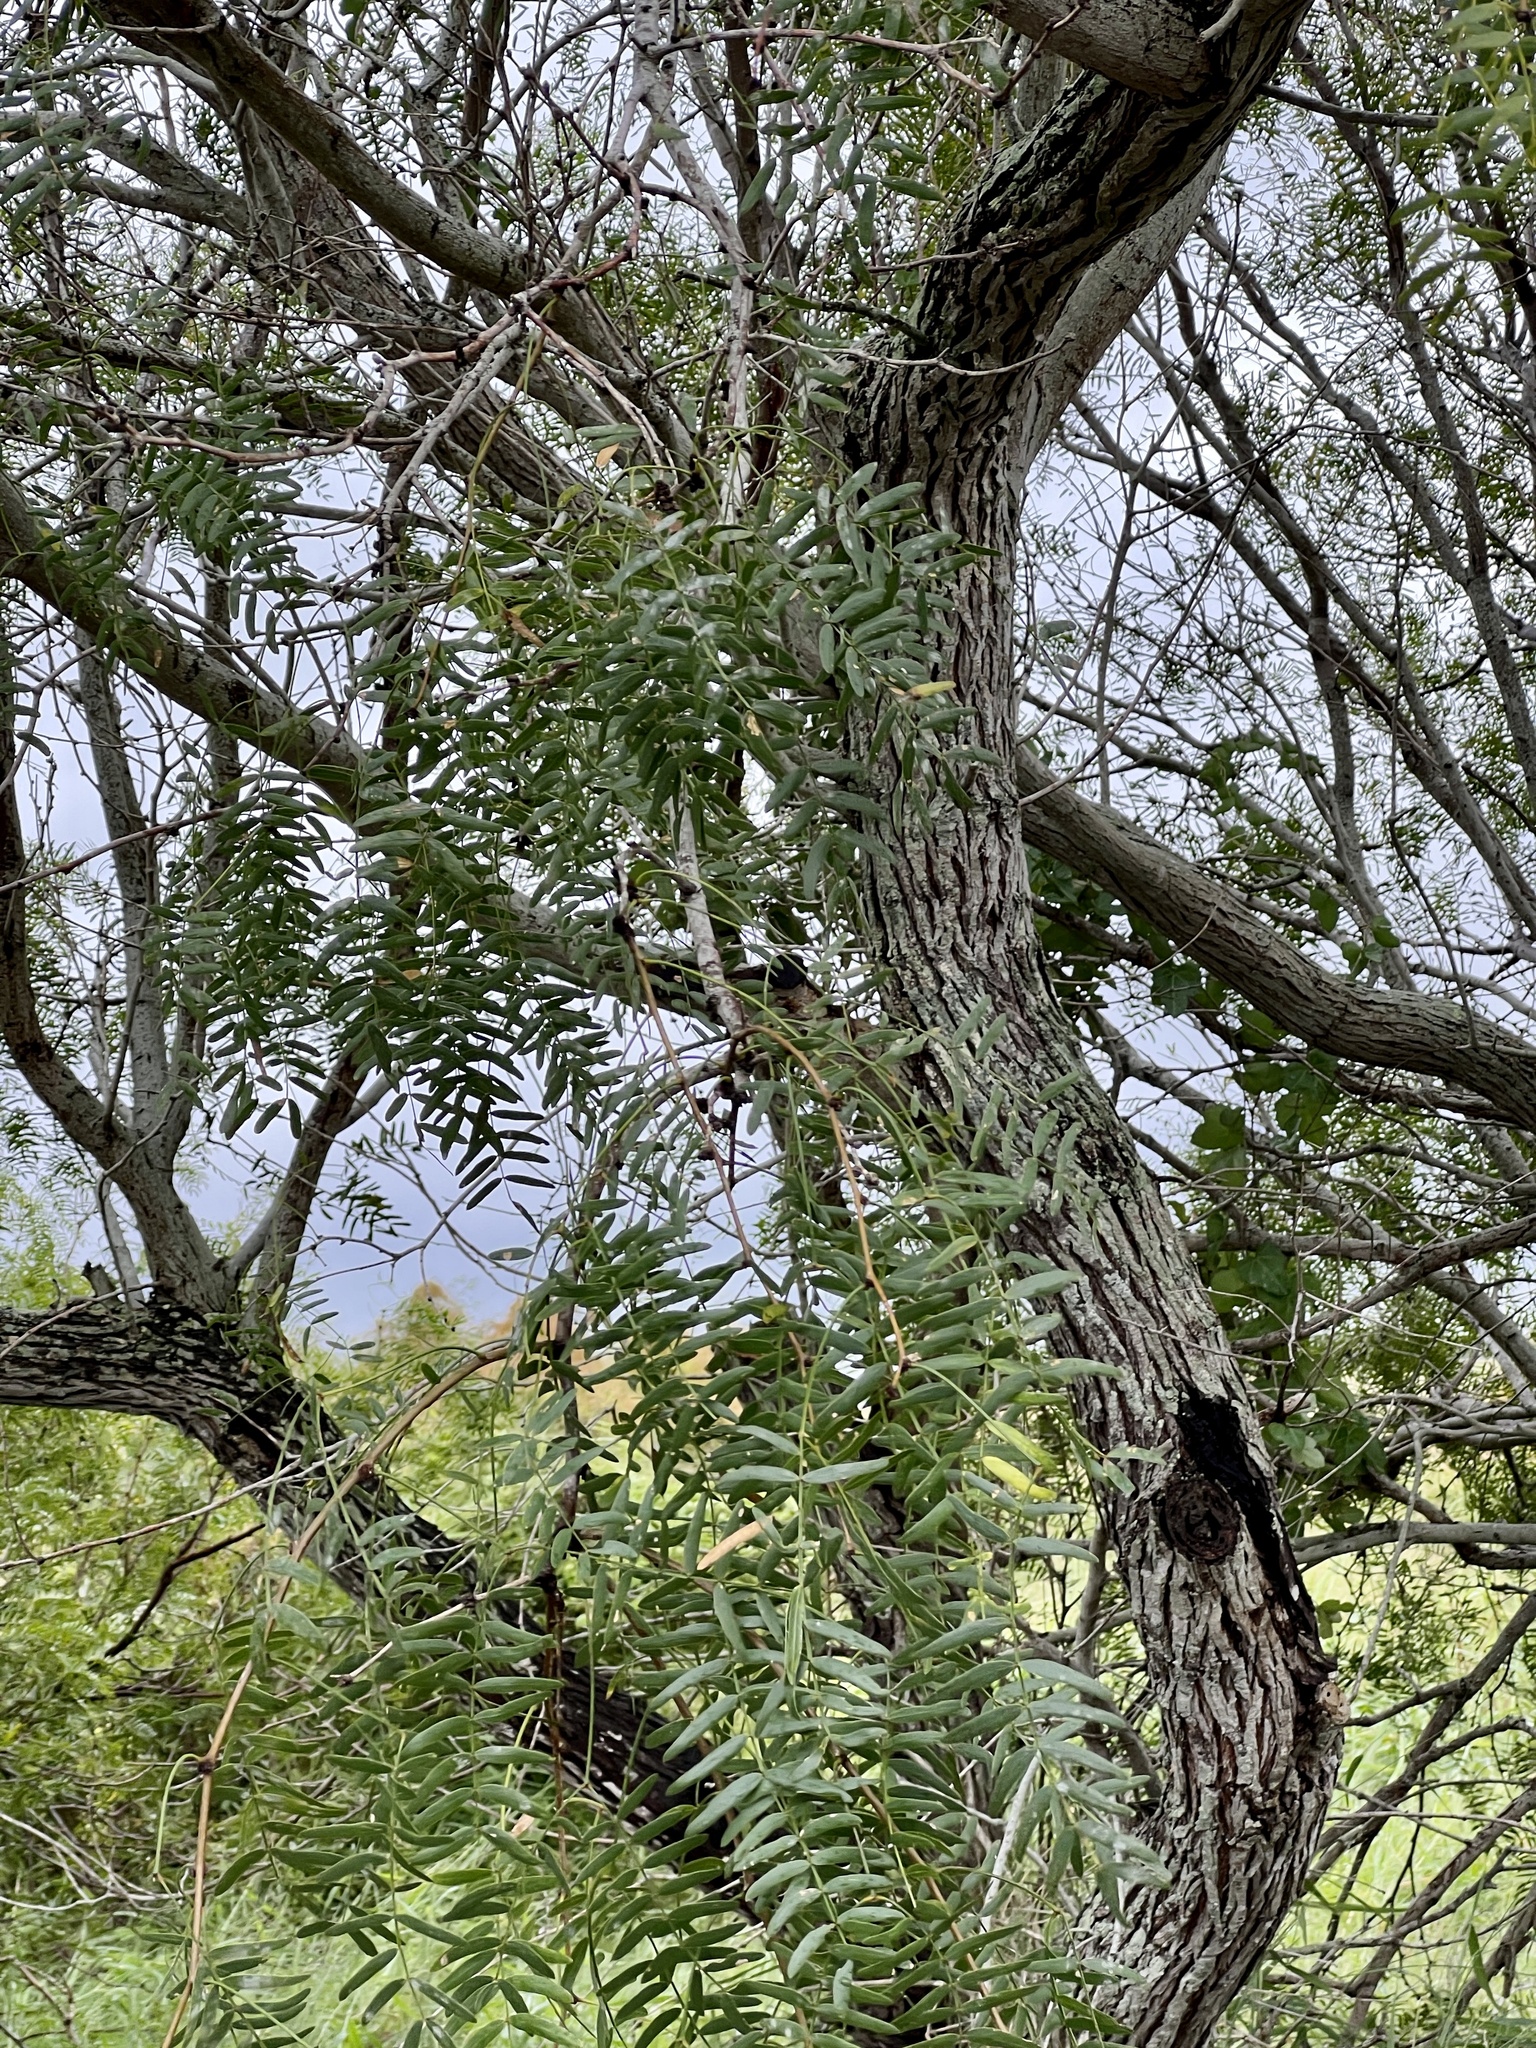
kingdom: Plantae
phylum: Tracheophyta
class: Magnoliopsida
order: Fabales
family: Fabaceae
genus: Prosopis
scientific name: Prosopis glandulosa
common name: Honey mesquite
